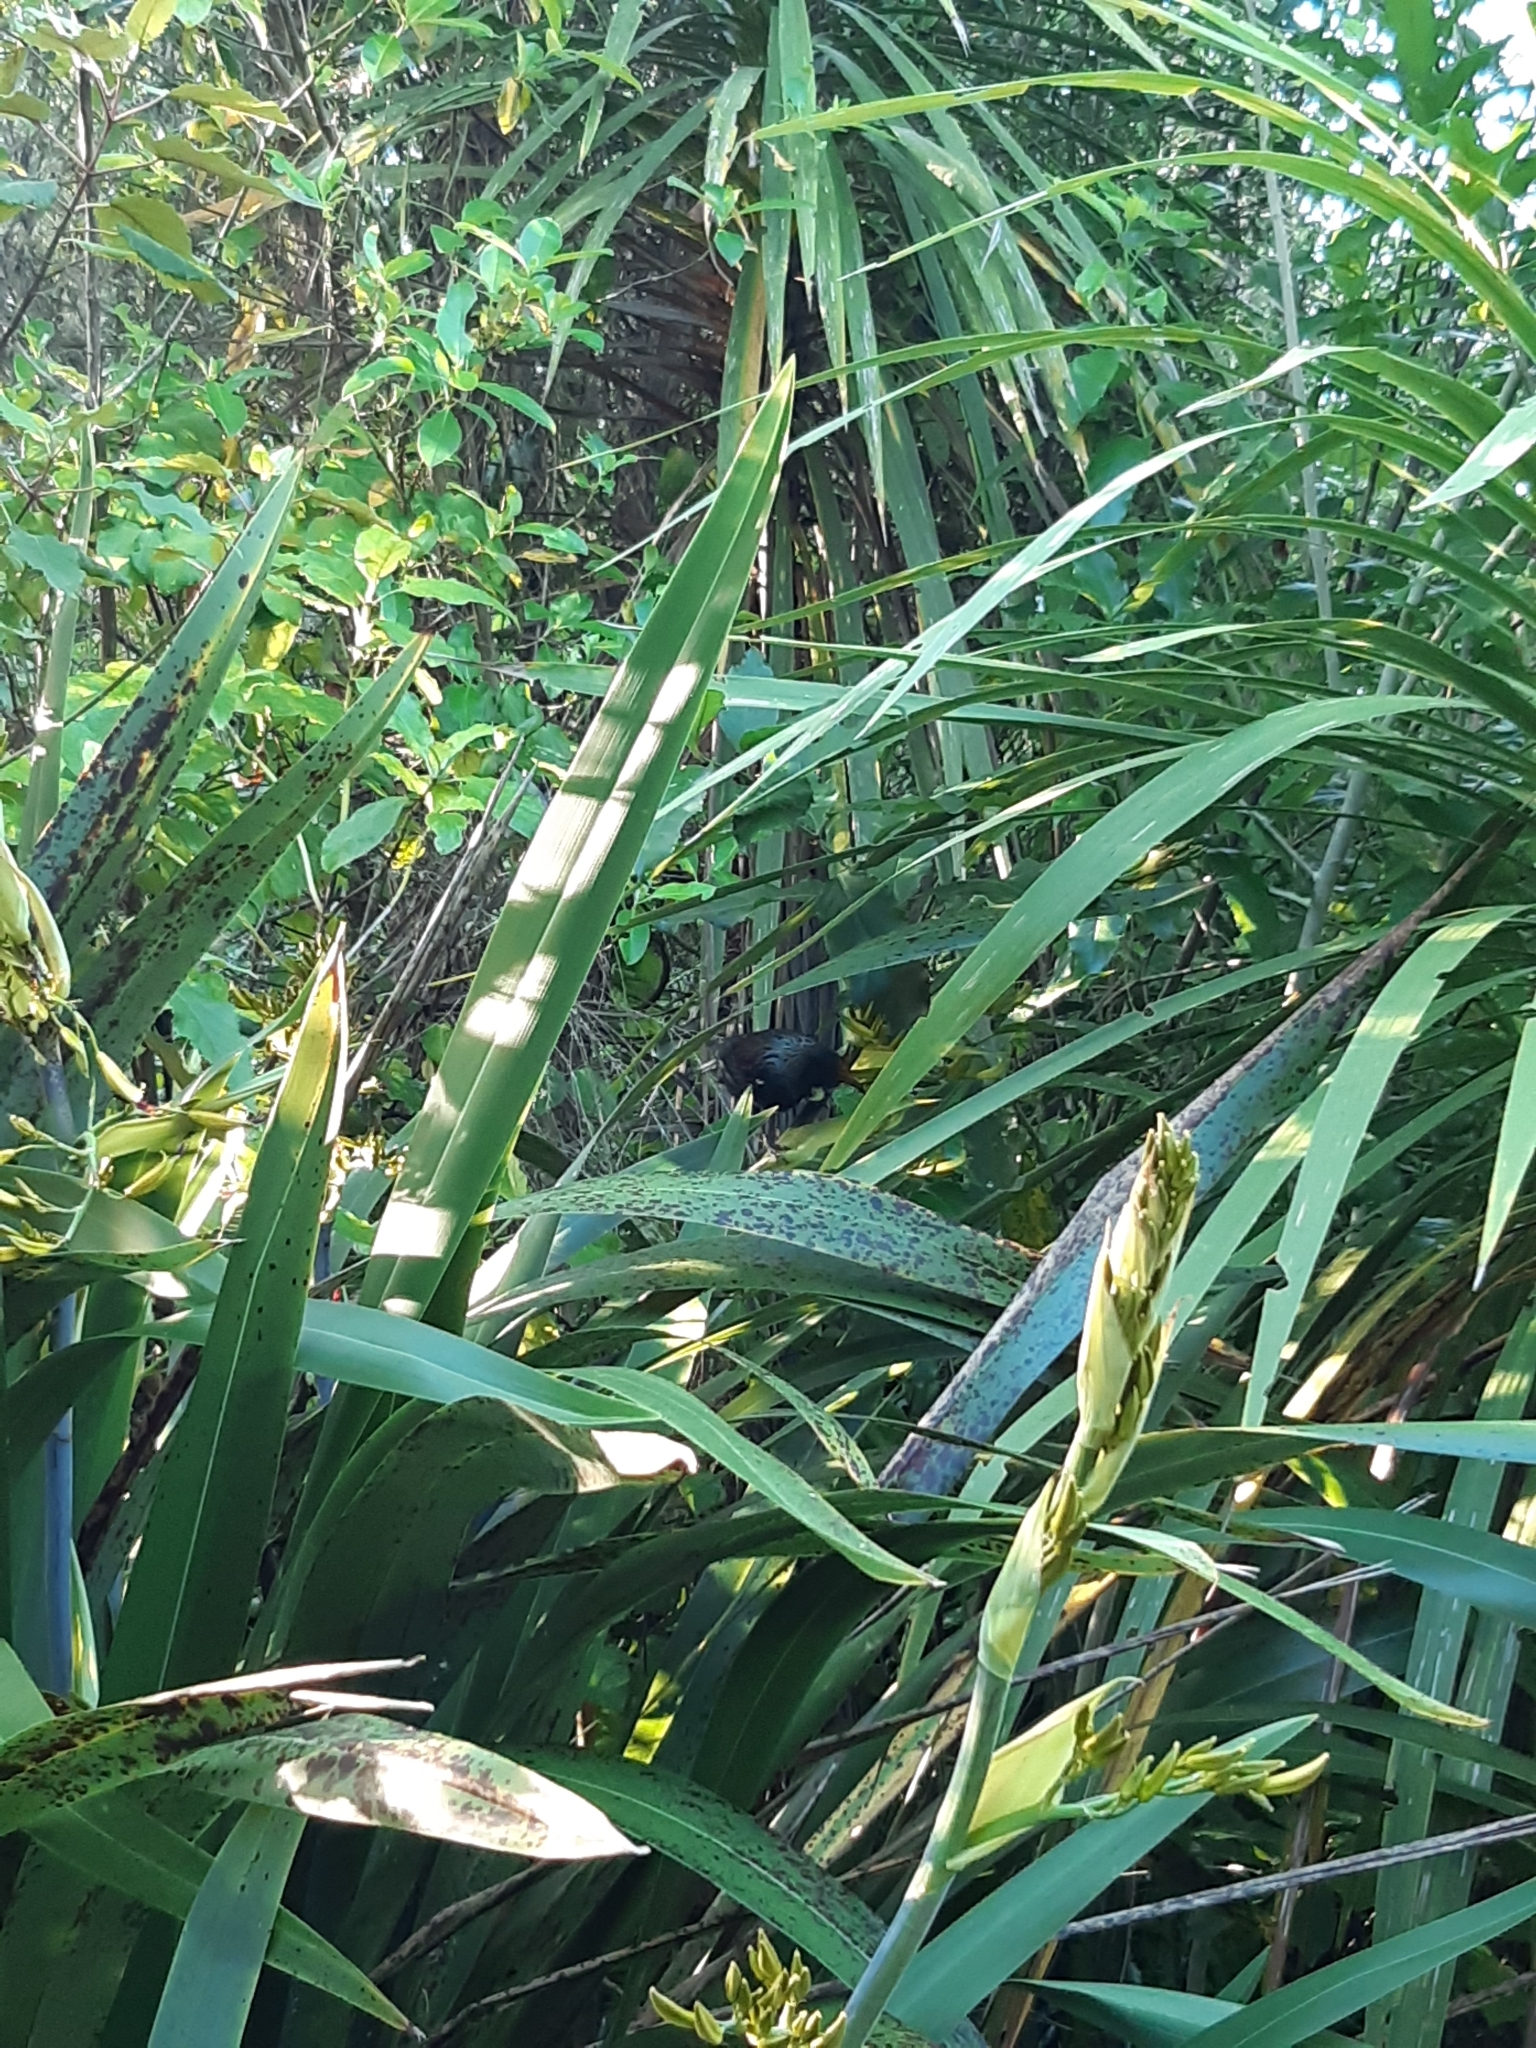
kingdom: Animalia
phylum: Chordata
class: Aves
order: Passeriformes
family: Meliphagidae
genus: Prosthemadera
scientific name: Prosthemadera novaeseelandiae
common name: Tui
